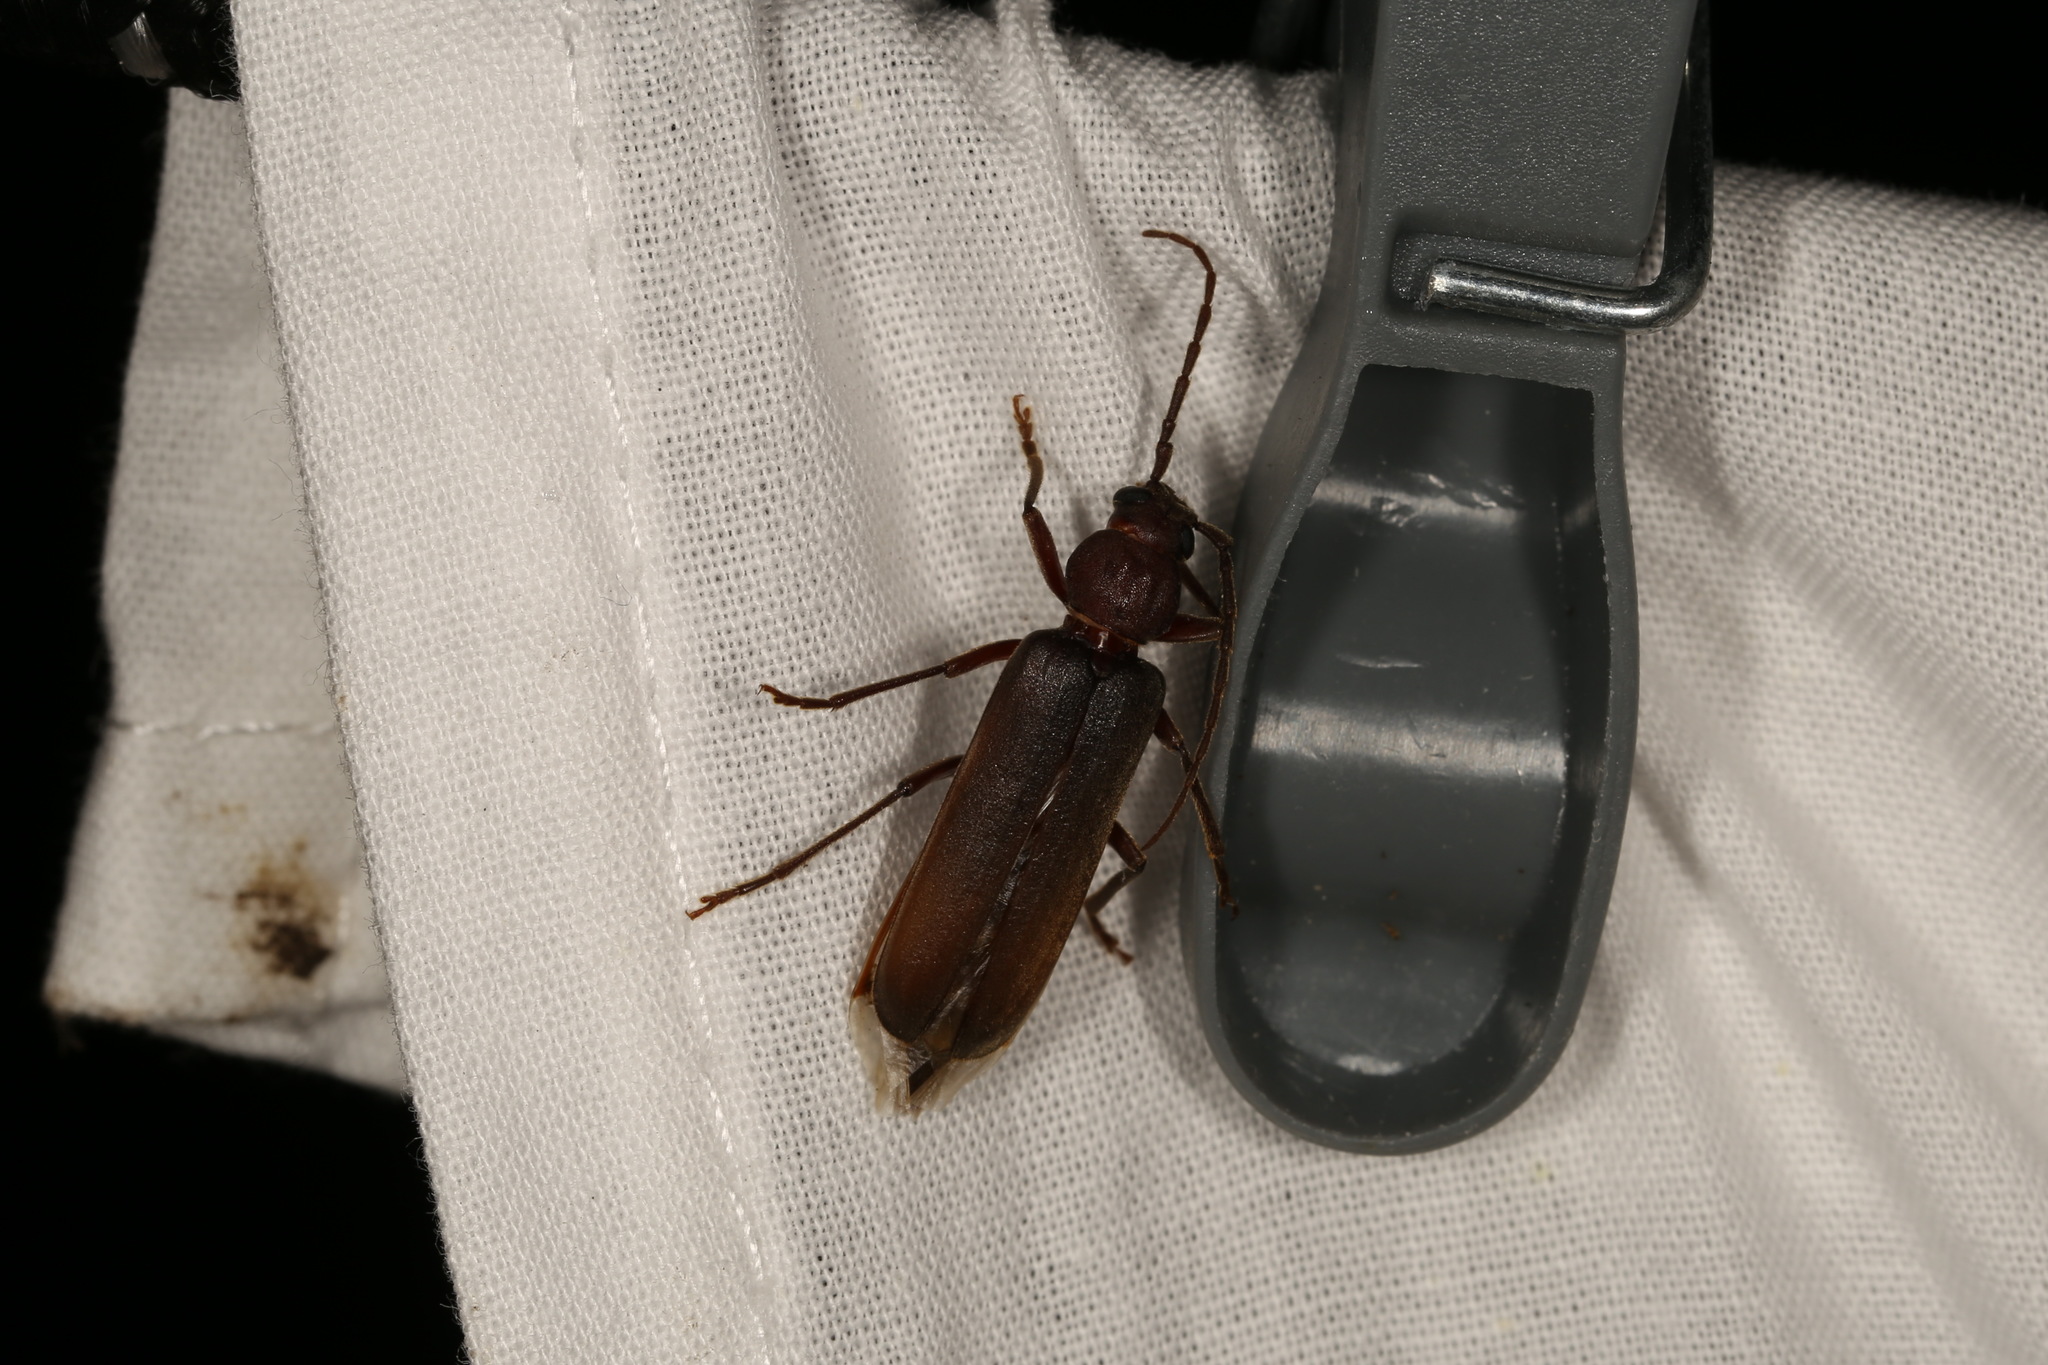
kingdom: Animalia
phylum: Arthropoda
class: Insecta
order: Coleoptera
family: Cerambycidae
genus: Arhopalus
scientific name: Arhopalus rusticus
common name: Rust pine borer
